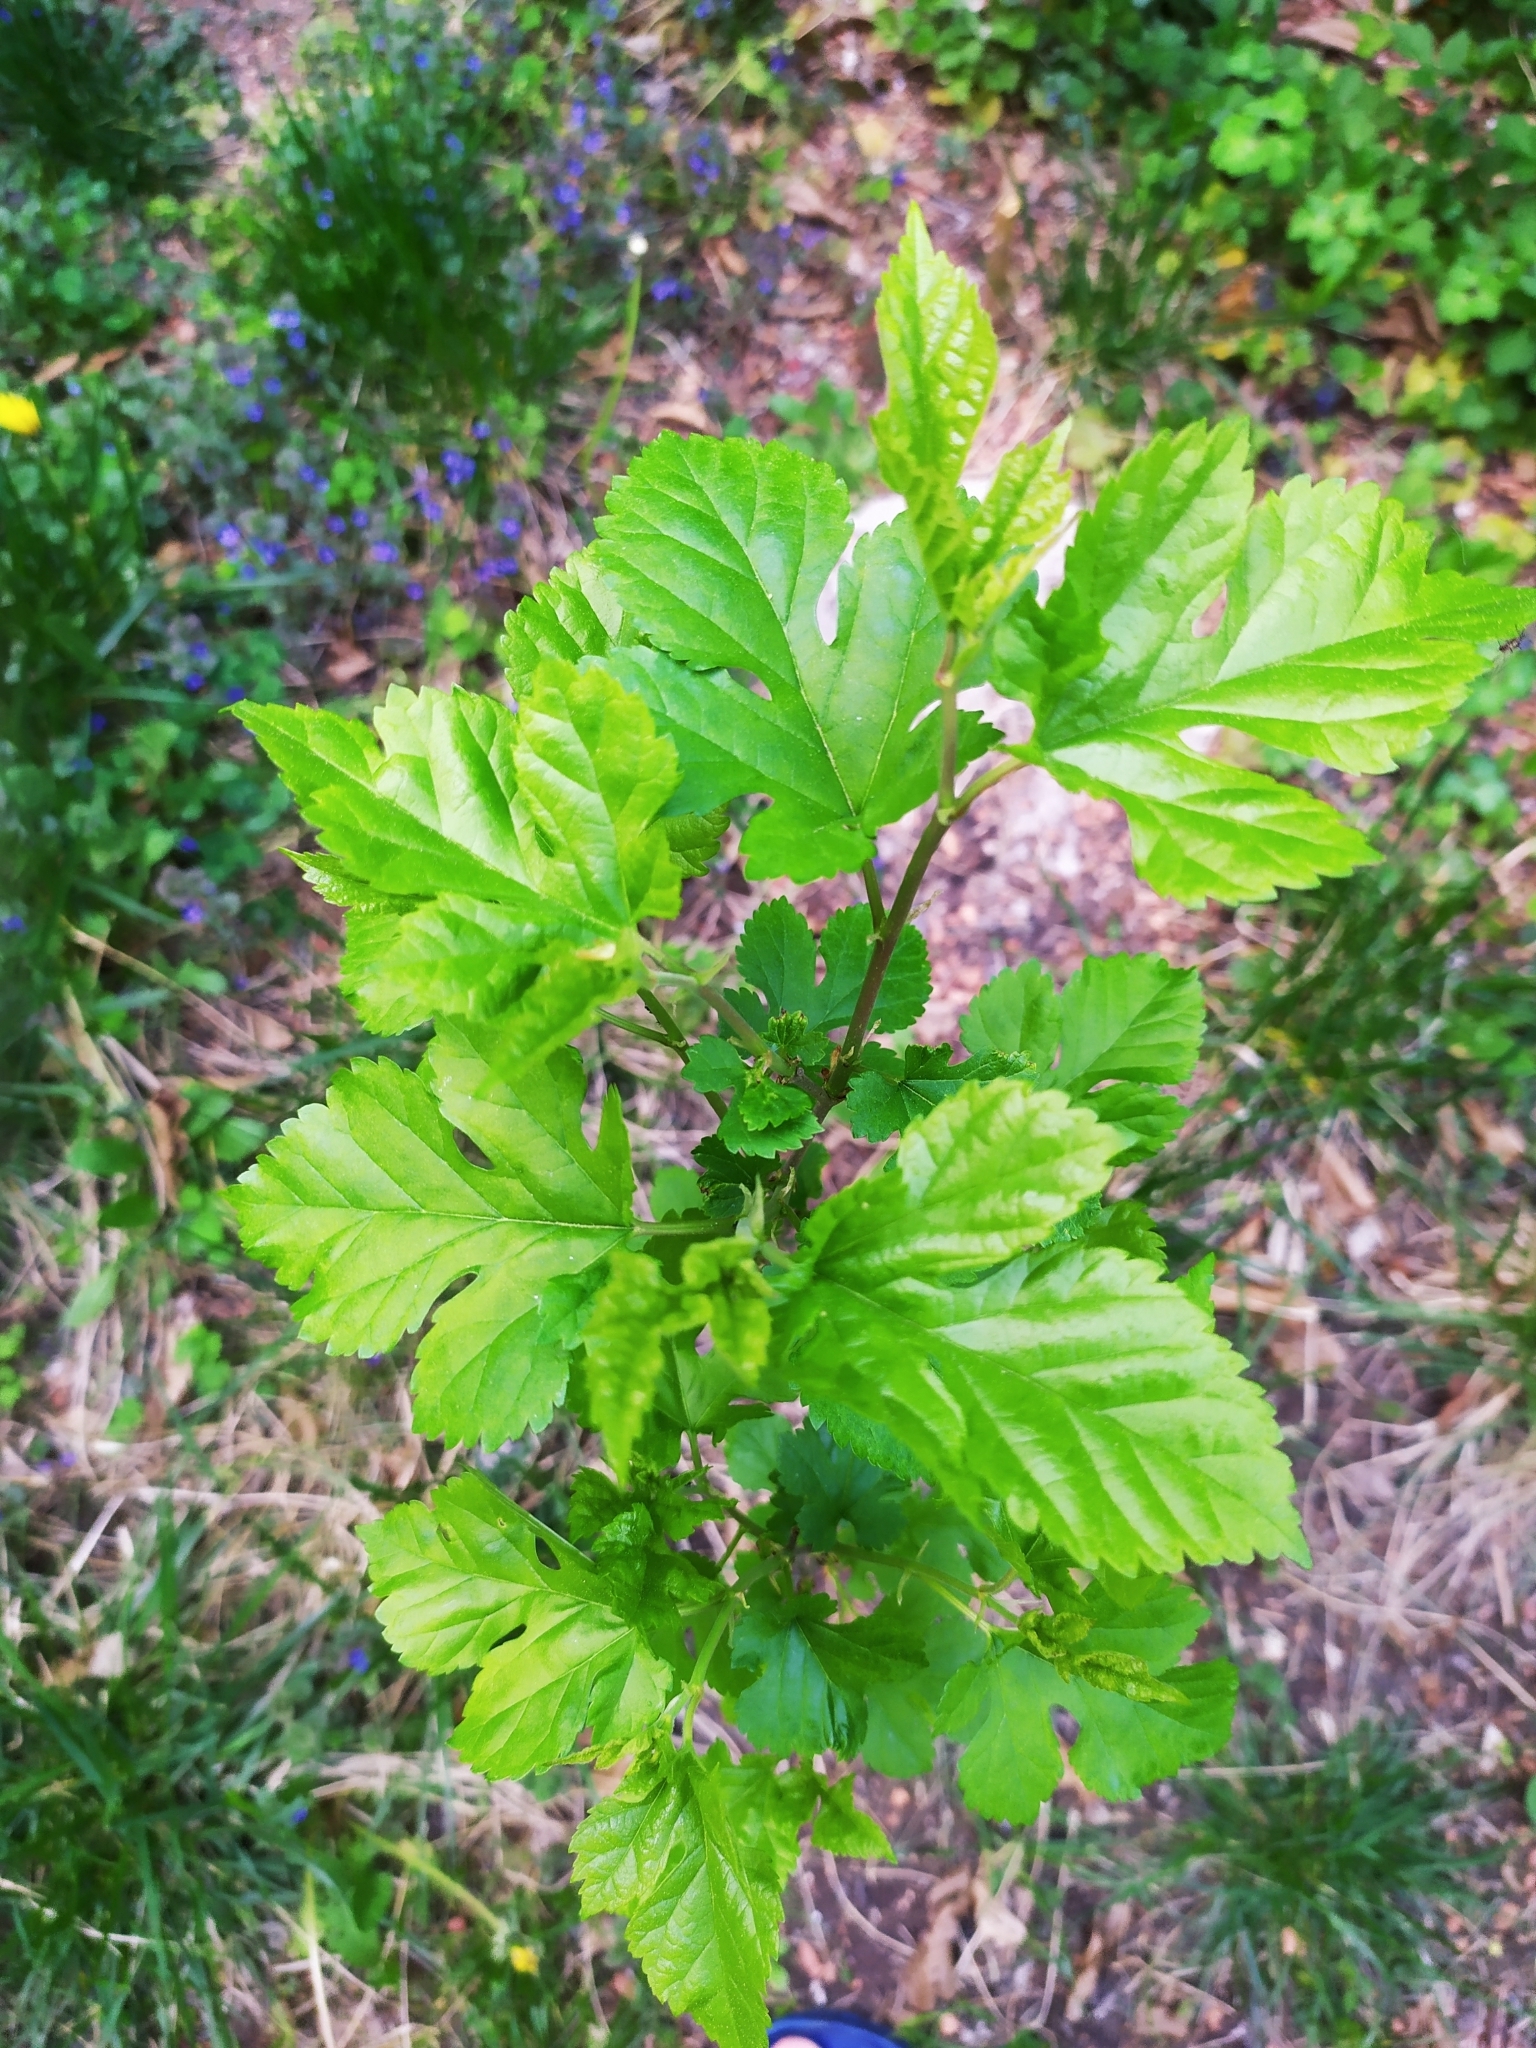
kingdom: Plantae
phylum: Tracheophyta
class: Magnoliopsida
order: Rosales
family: Moraceae
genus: Morus
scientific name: Morus alba
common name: White mulberry
